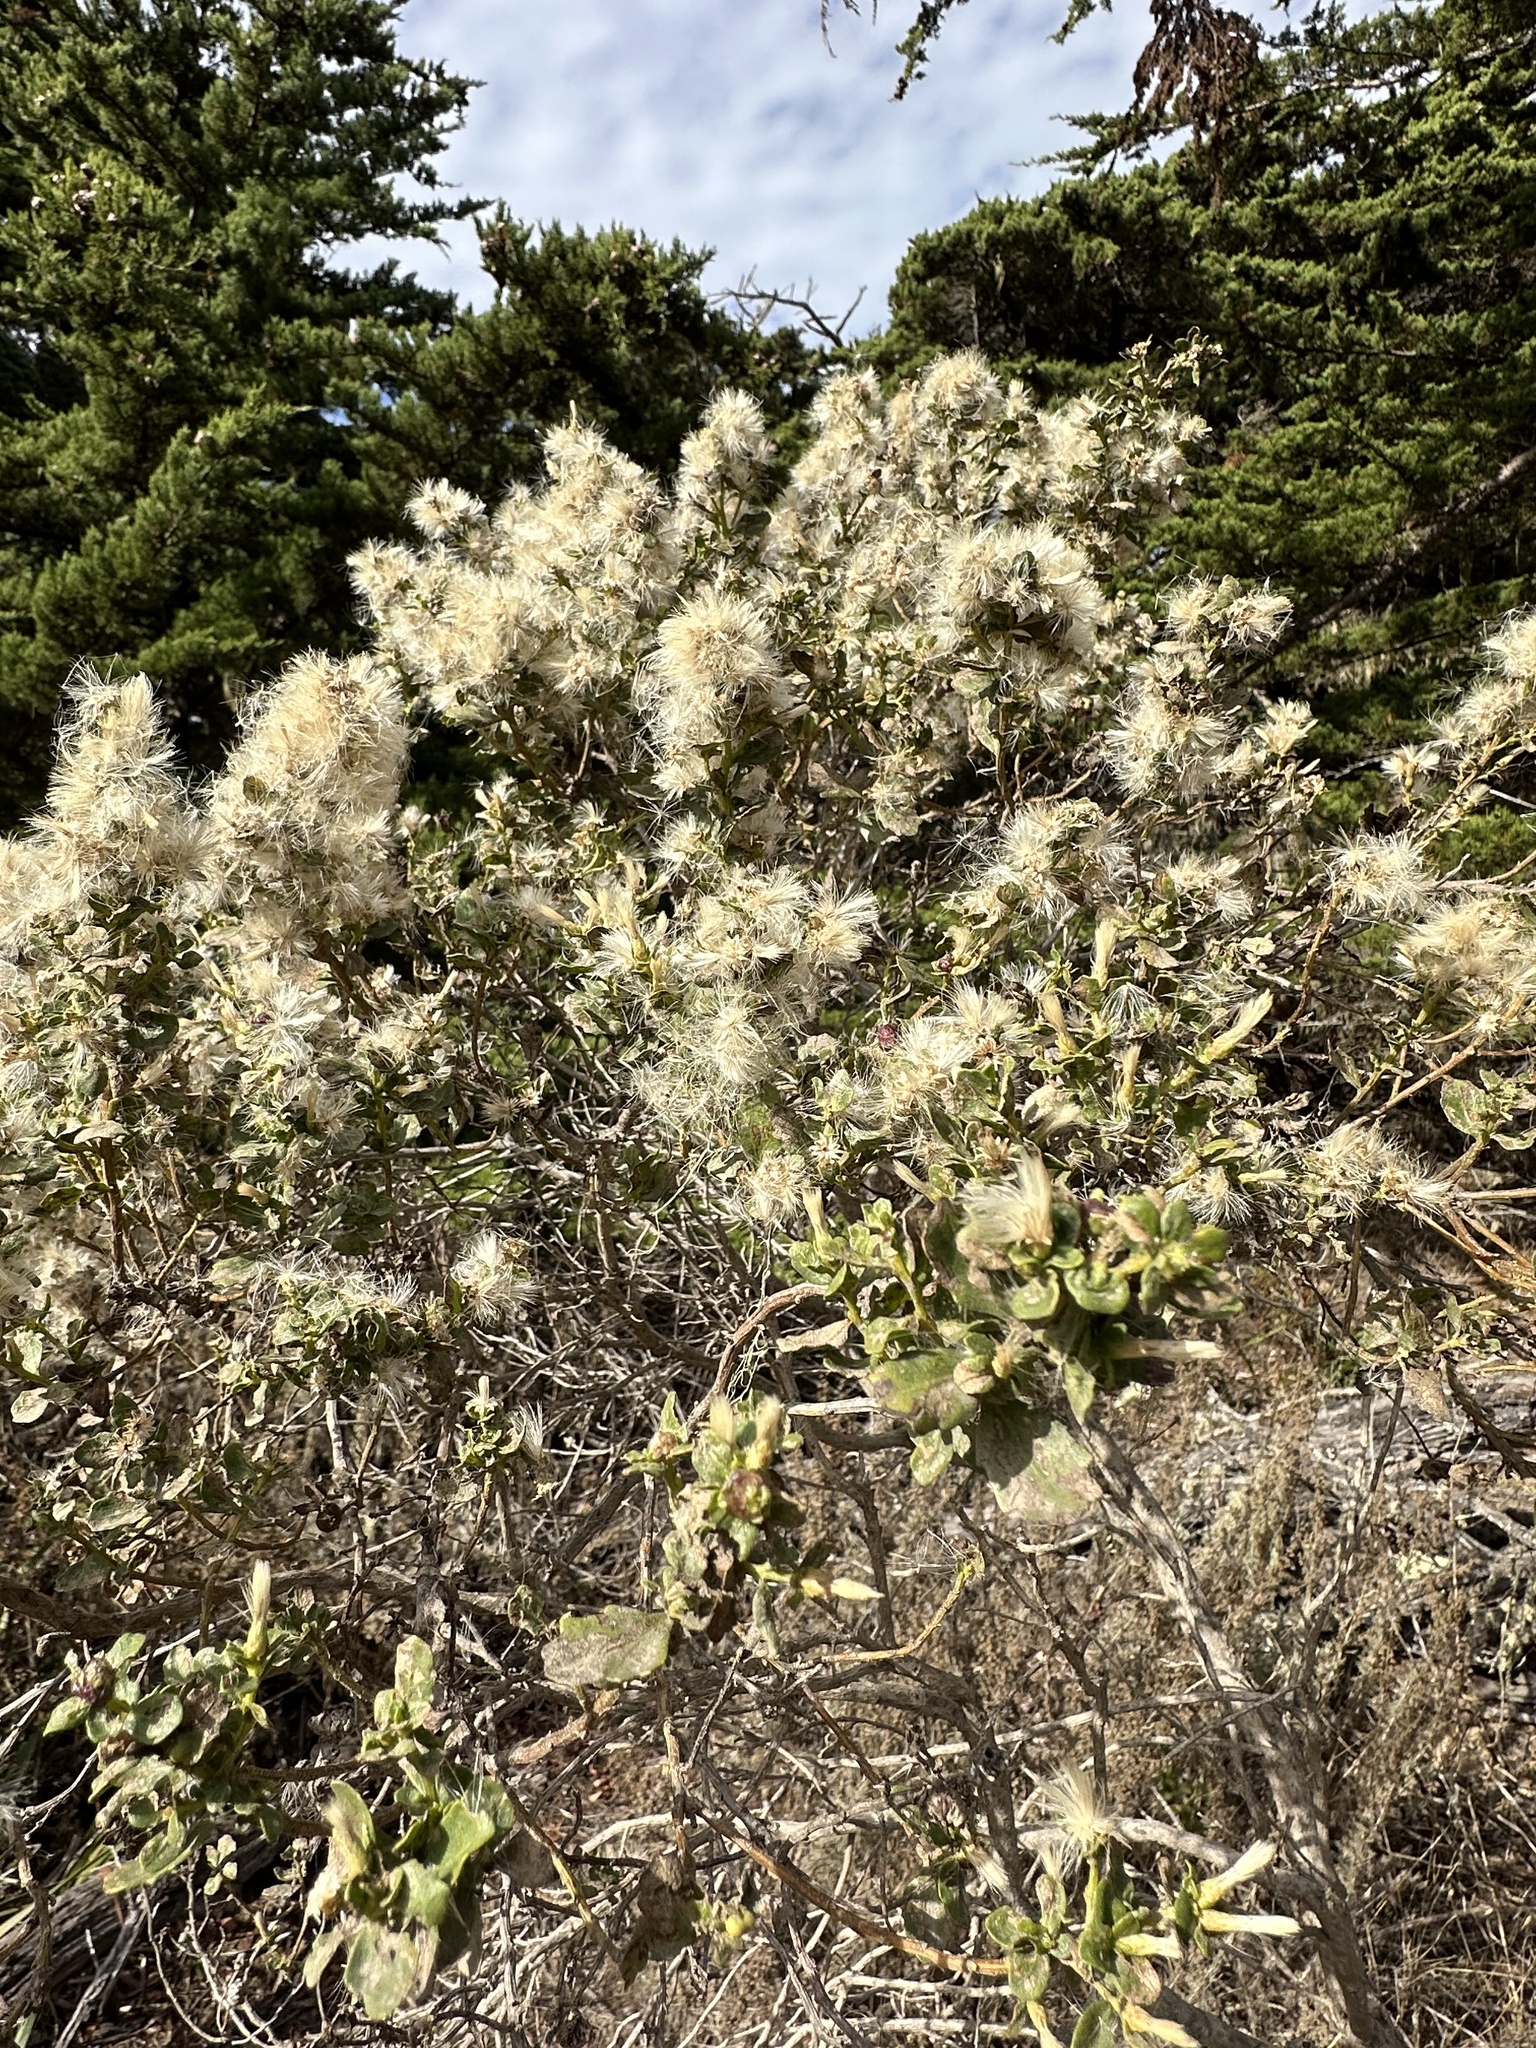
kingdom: Plantae
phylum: Tracheophyta
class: Magnoliopsida
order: Asterales
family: Asteraceae
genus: Baccharis
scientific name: Baccharis pilularis
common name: Coyotebrush
